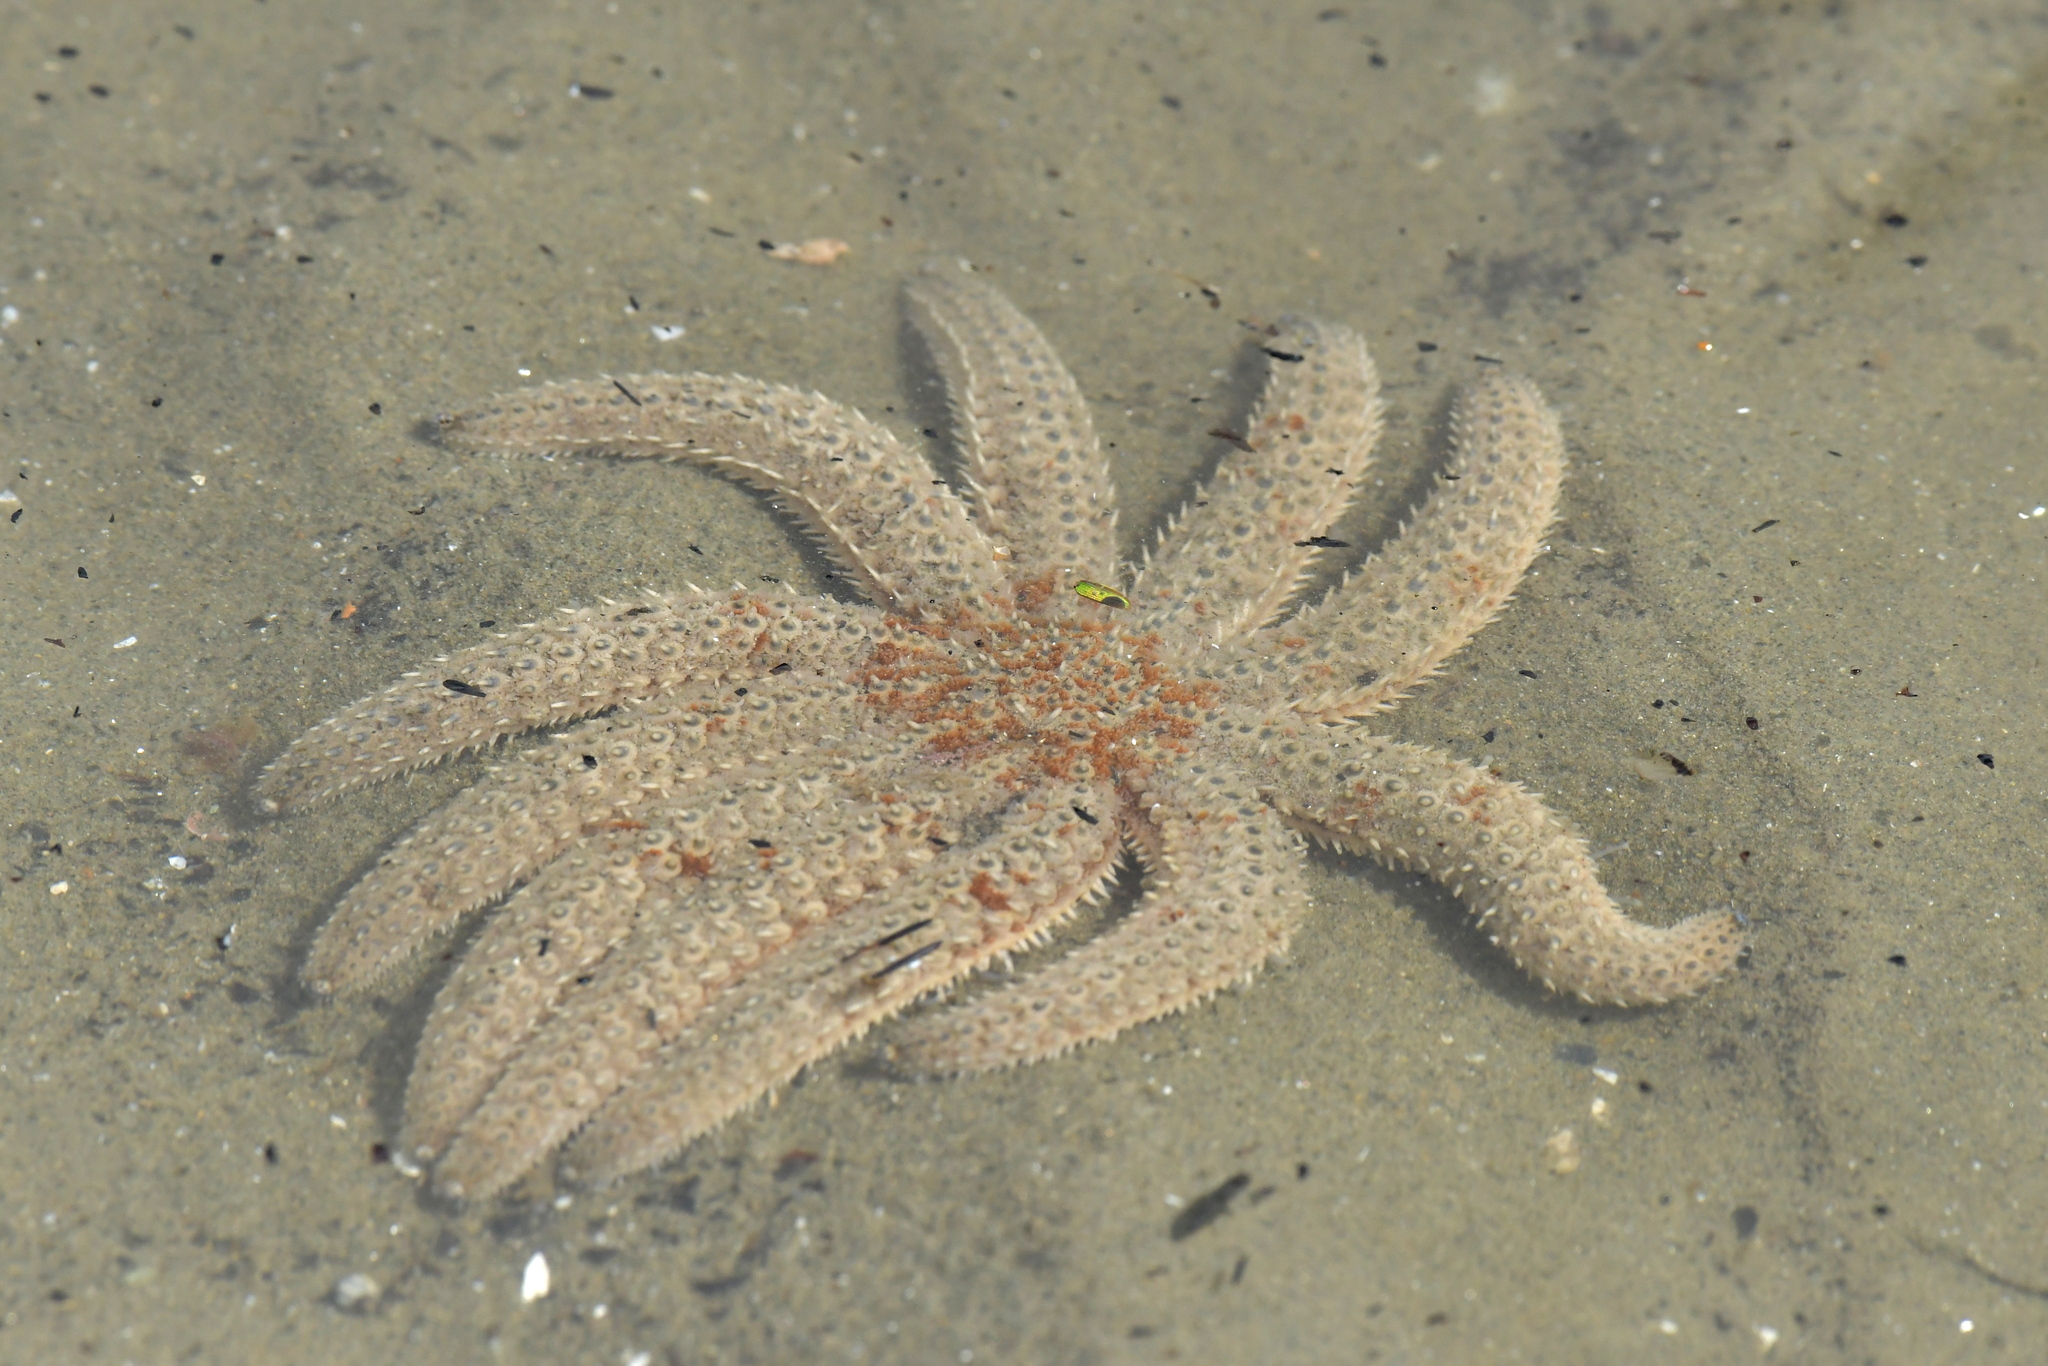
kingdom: Animalia
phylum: Echinodermata
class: Asteroidea
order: Forcipulatida
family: Asteriidae
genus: Coscinasterias
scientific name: Coscinasterias muricata
